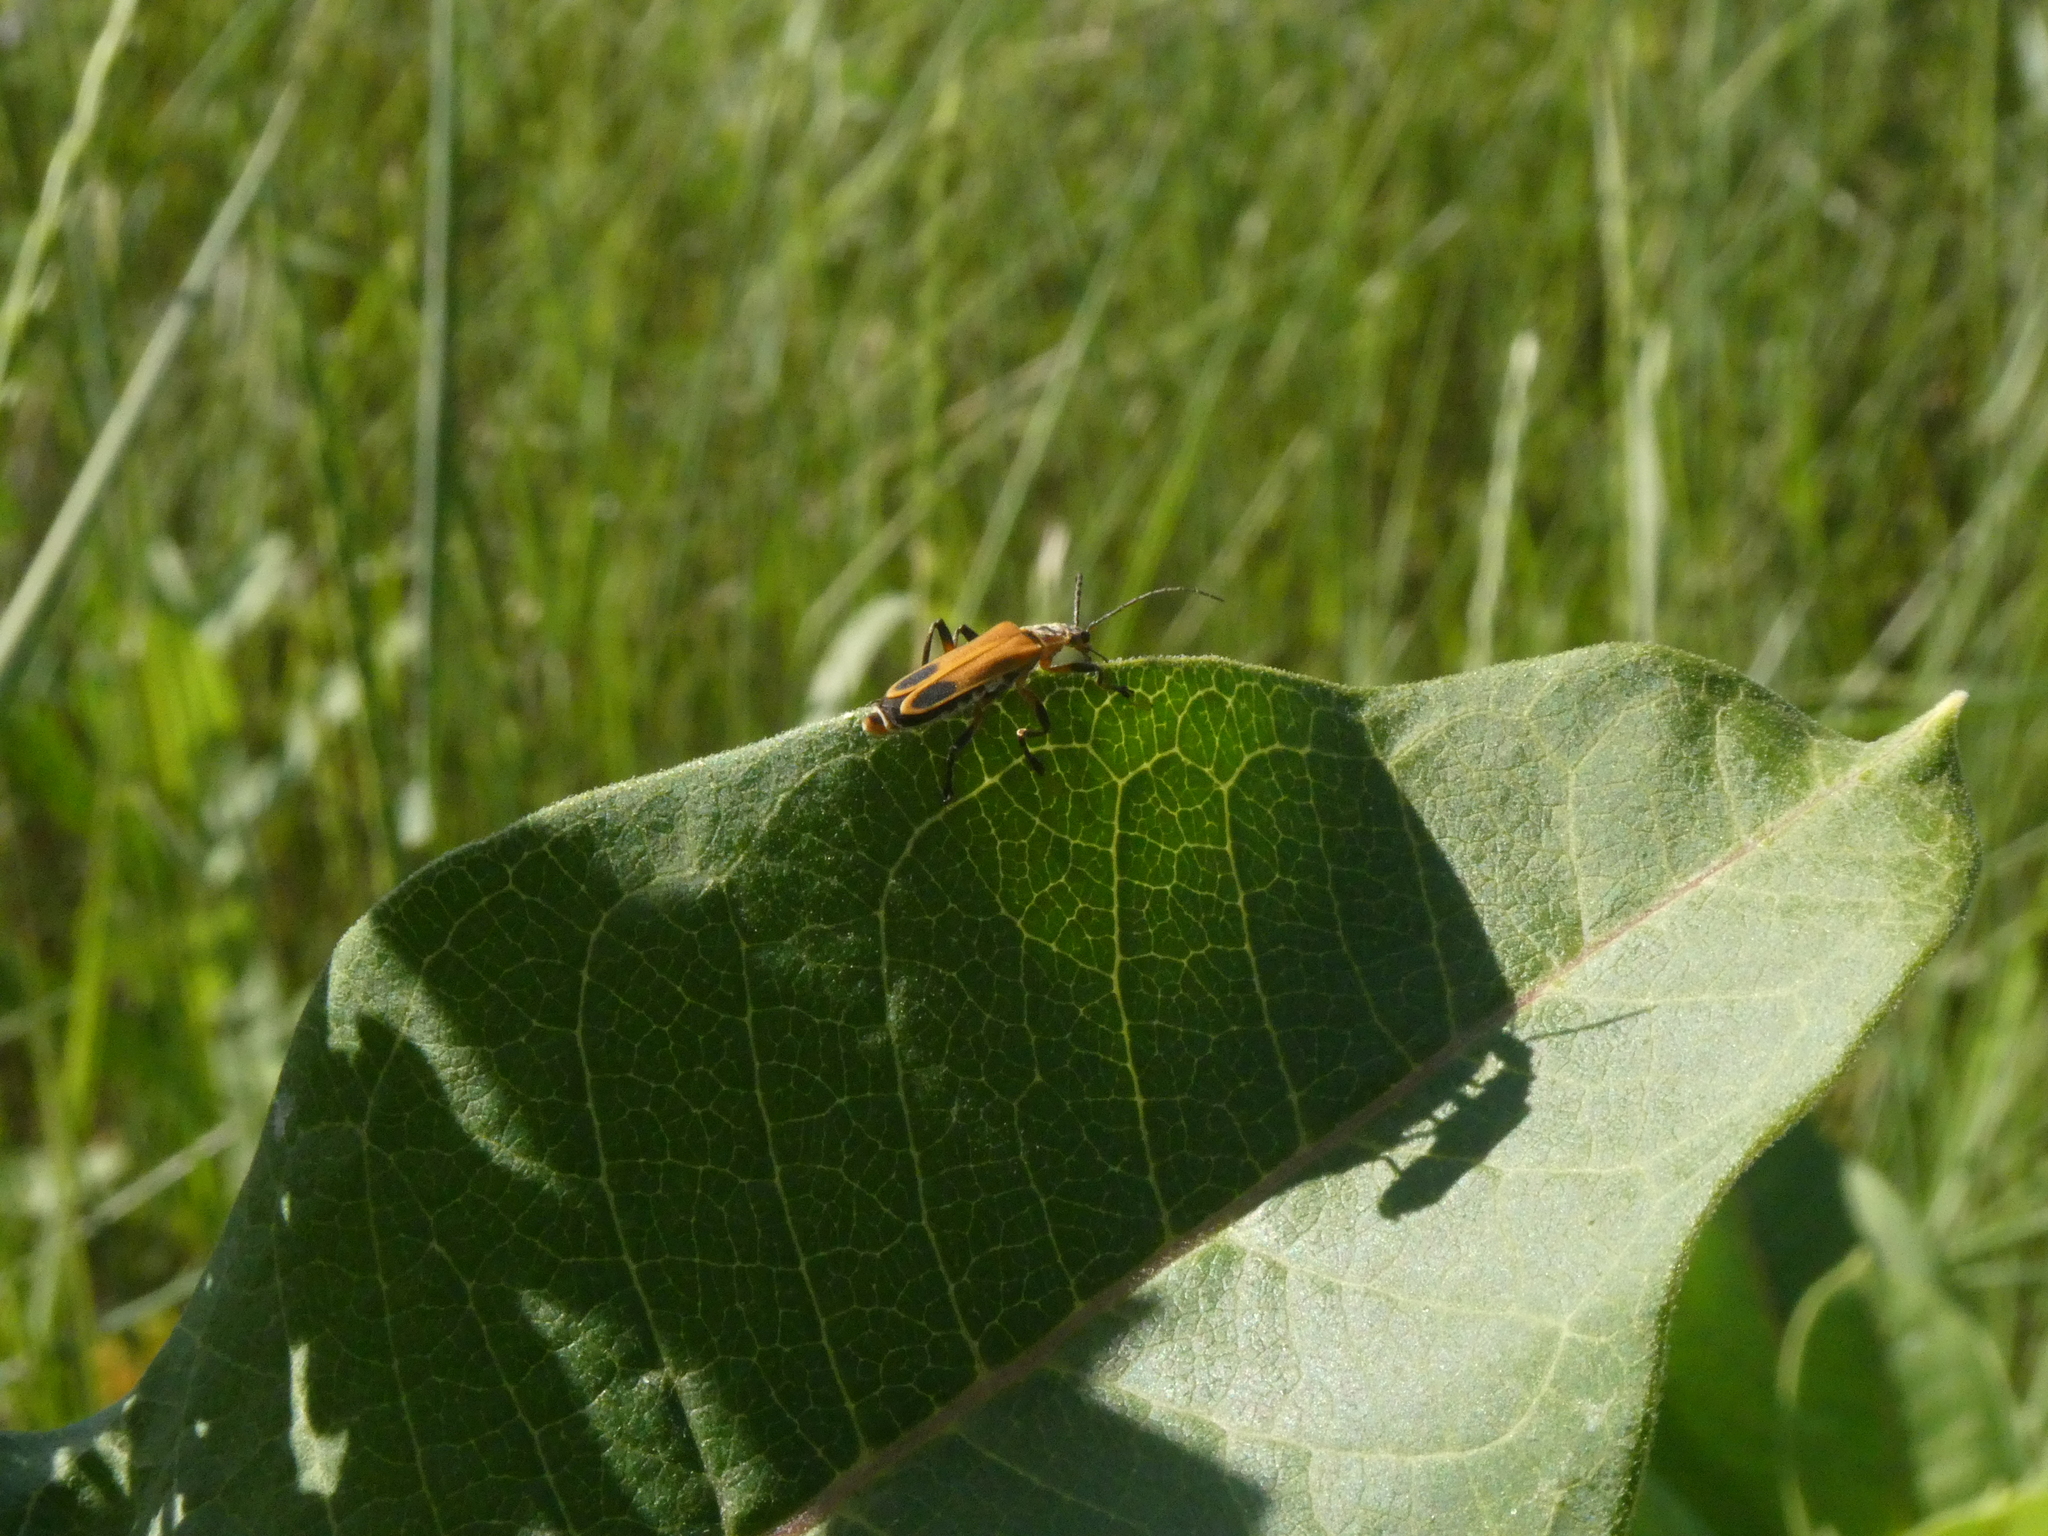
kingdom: Animalia
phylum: Arthropoda
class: Insecta
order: Coleoptera
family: Cantharidae
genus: Chauliognathus
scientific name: Chauliognathus marginatus
